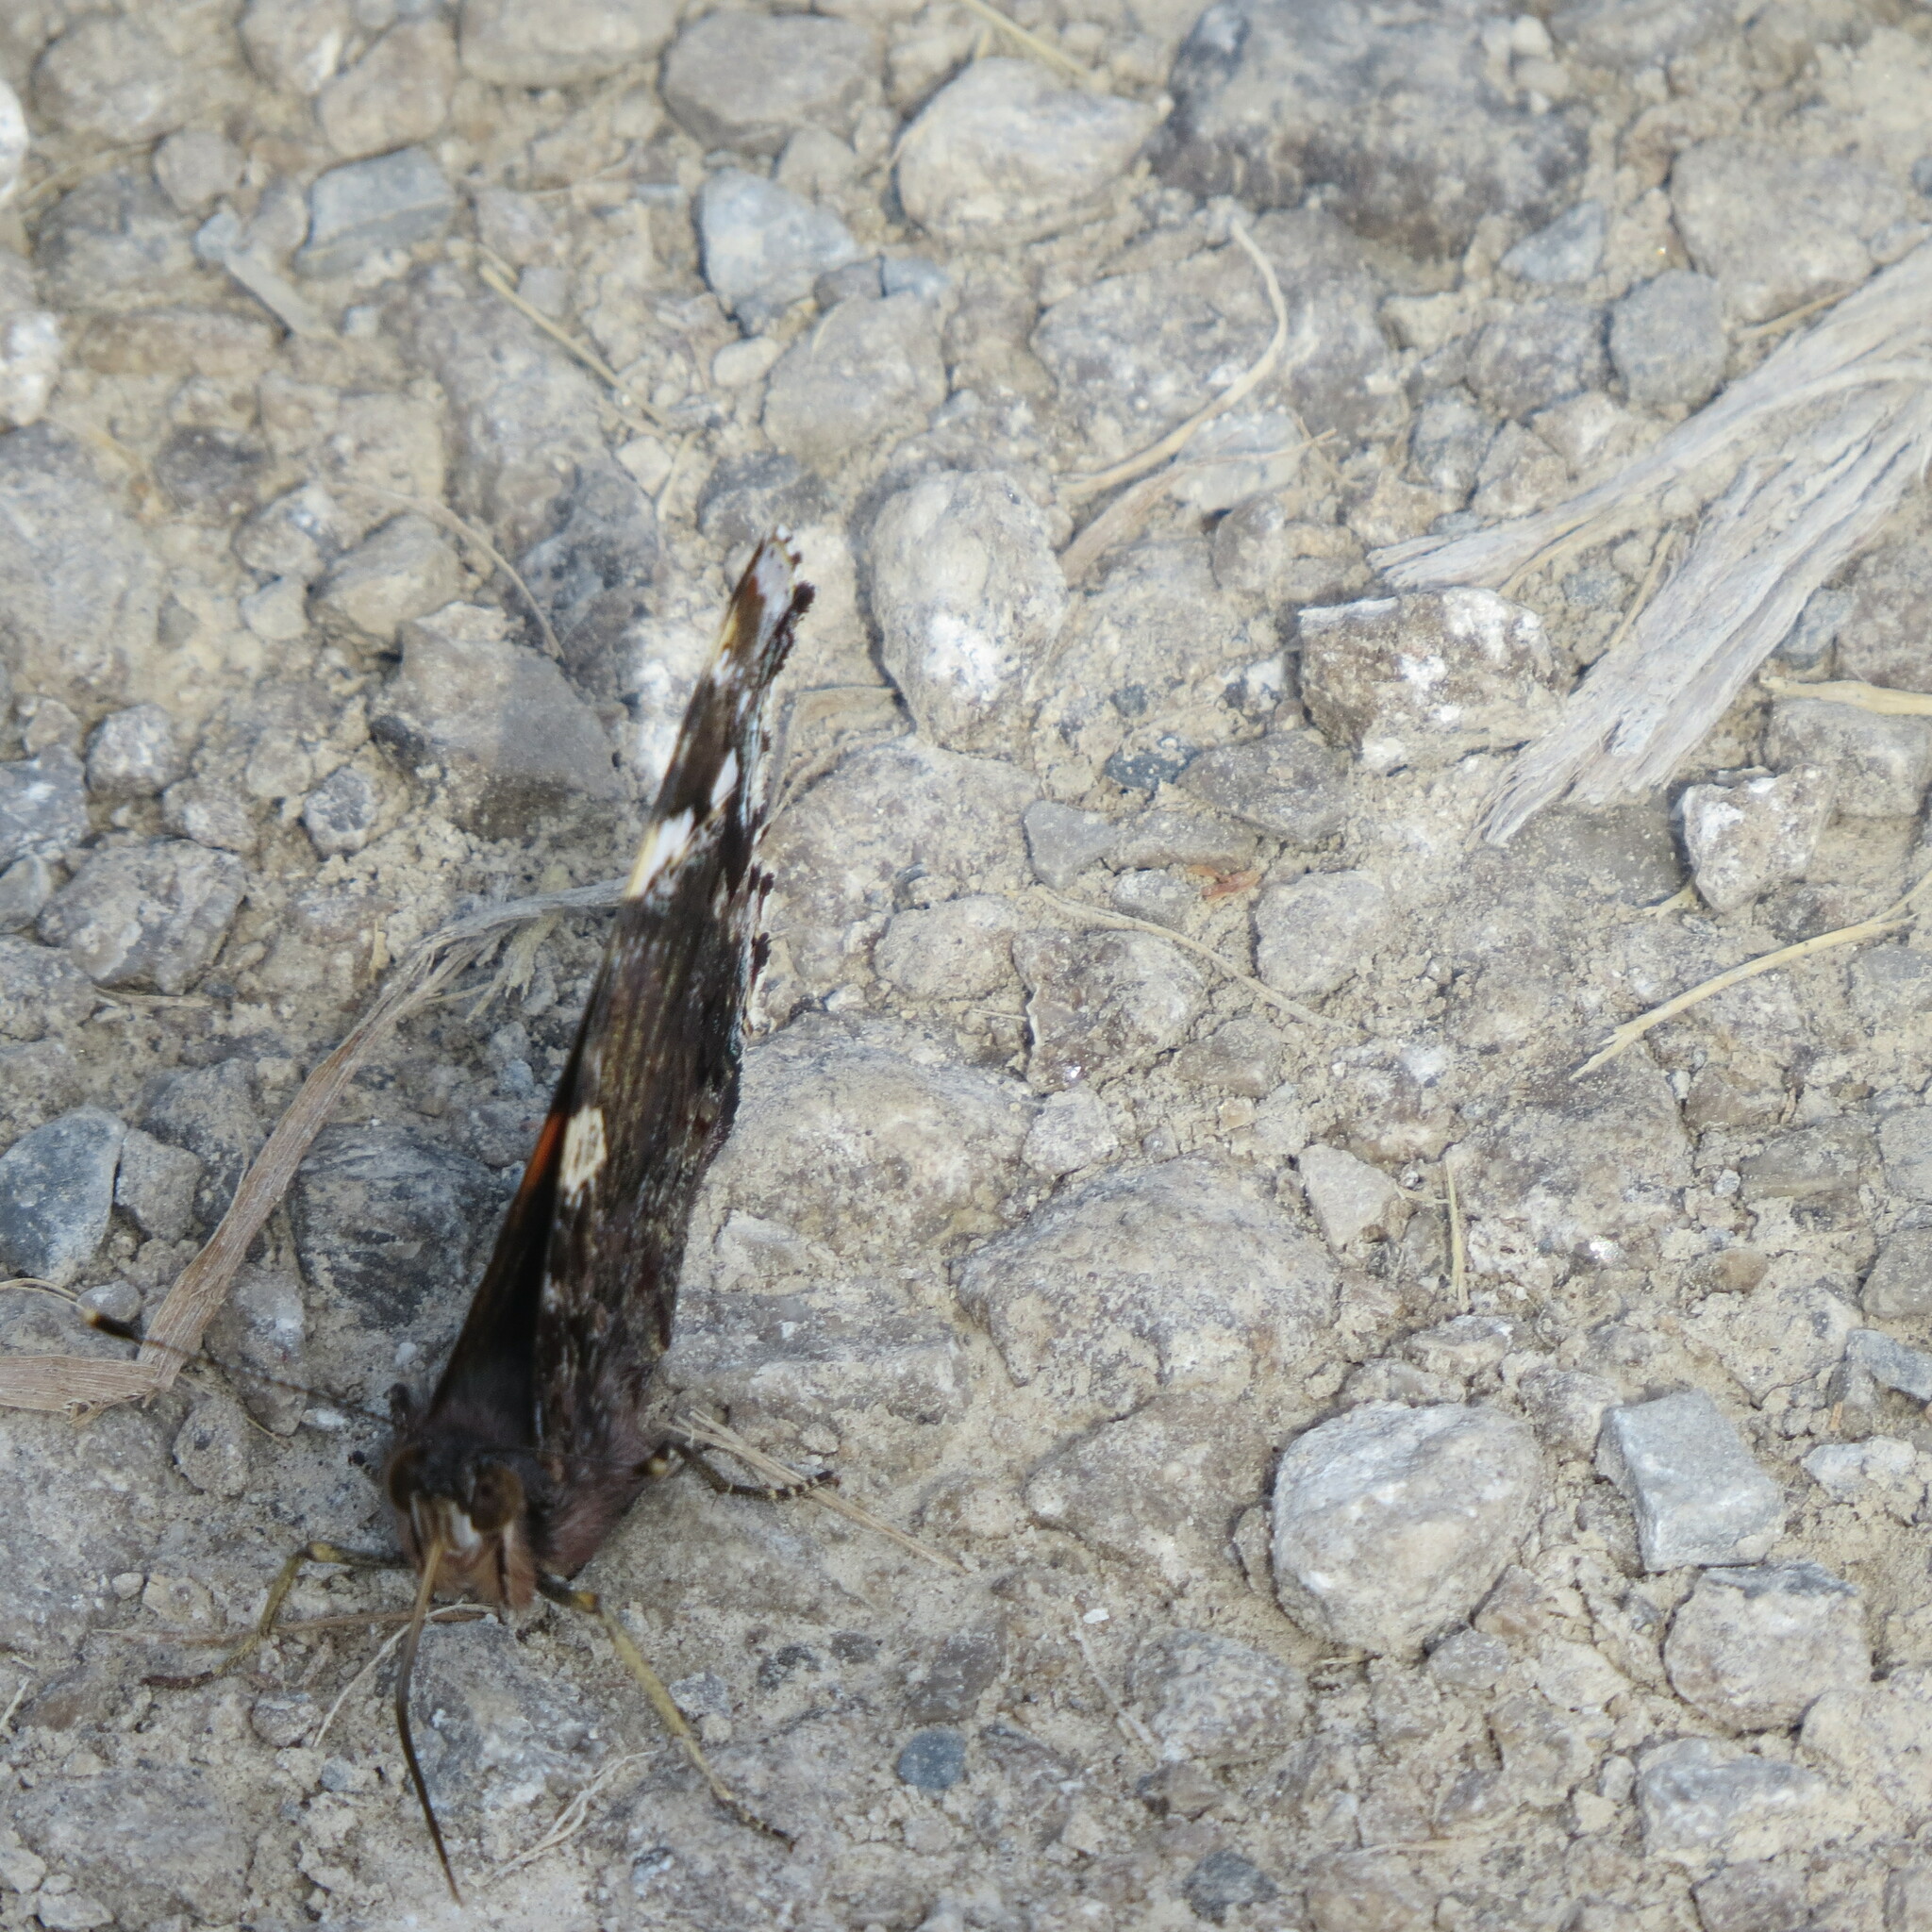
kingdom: Animalia
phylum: Arthropoda
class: Insecta
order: Lepidoptera
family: Nymphalidae
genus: Vanessa
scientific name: Vanessa atalanta
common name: Red admiral
